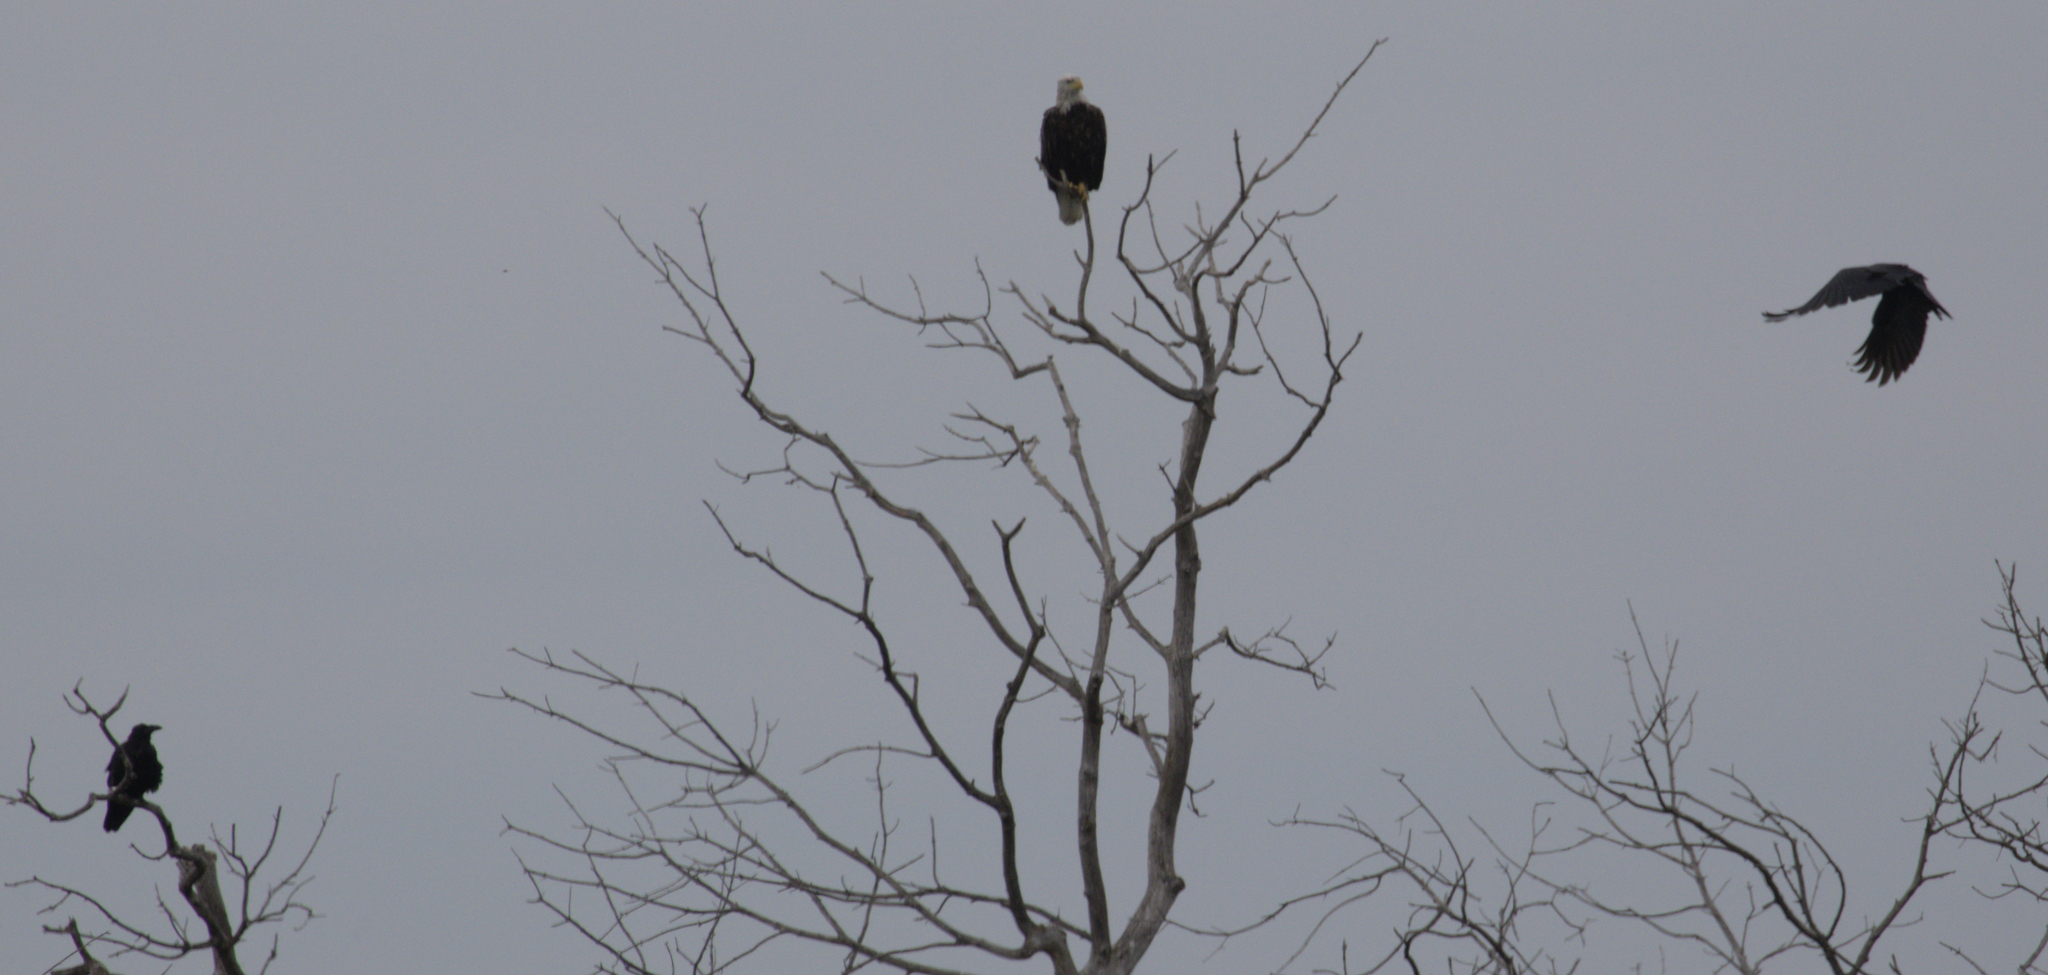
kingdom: Animalia
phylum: Chordata
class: Aves
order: Passeriformes
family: Corvidae
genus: Corvus
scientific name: Corvus corax
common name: Common raven
